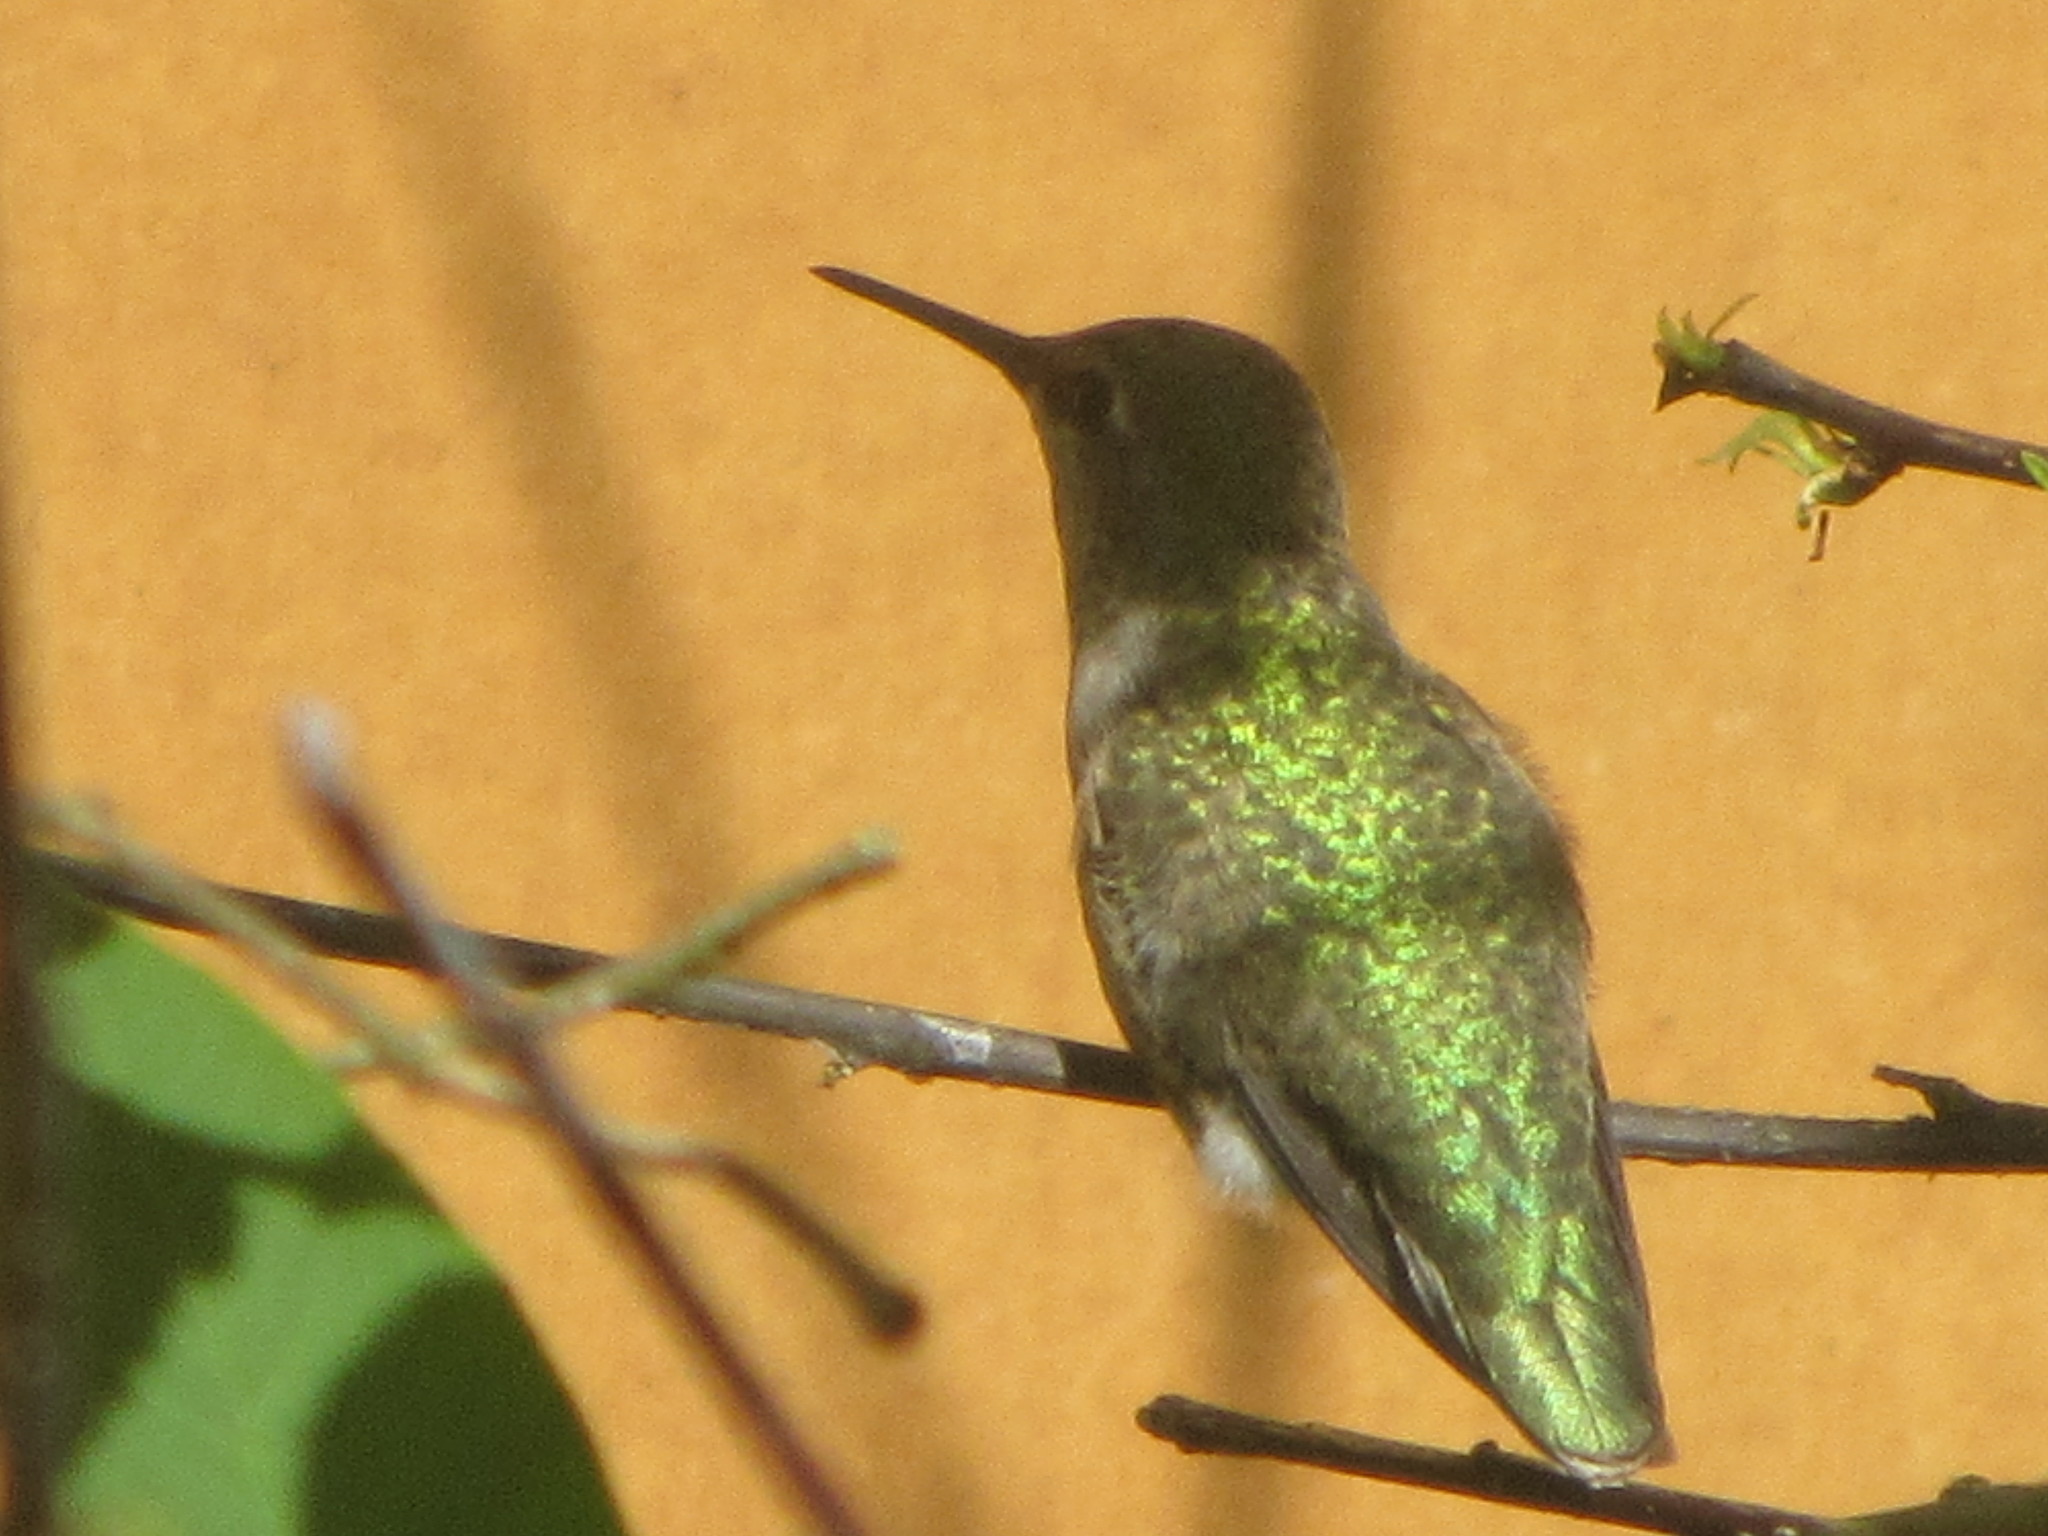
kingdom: Animalia
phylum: Chordata
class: Aves
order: Apodiformes
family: Trochilidae
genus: Calypte
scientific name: Calypte anna
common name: Anna's hummingbird
